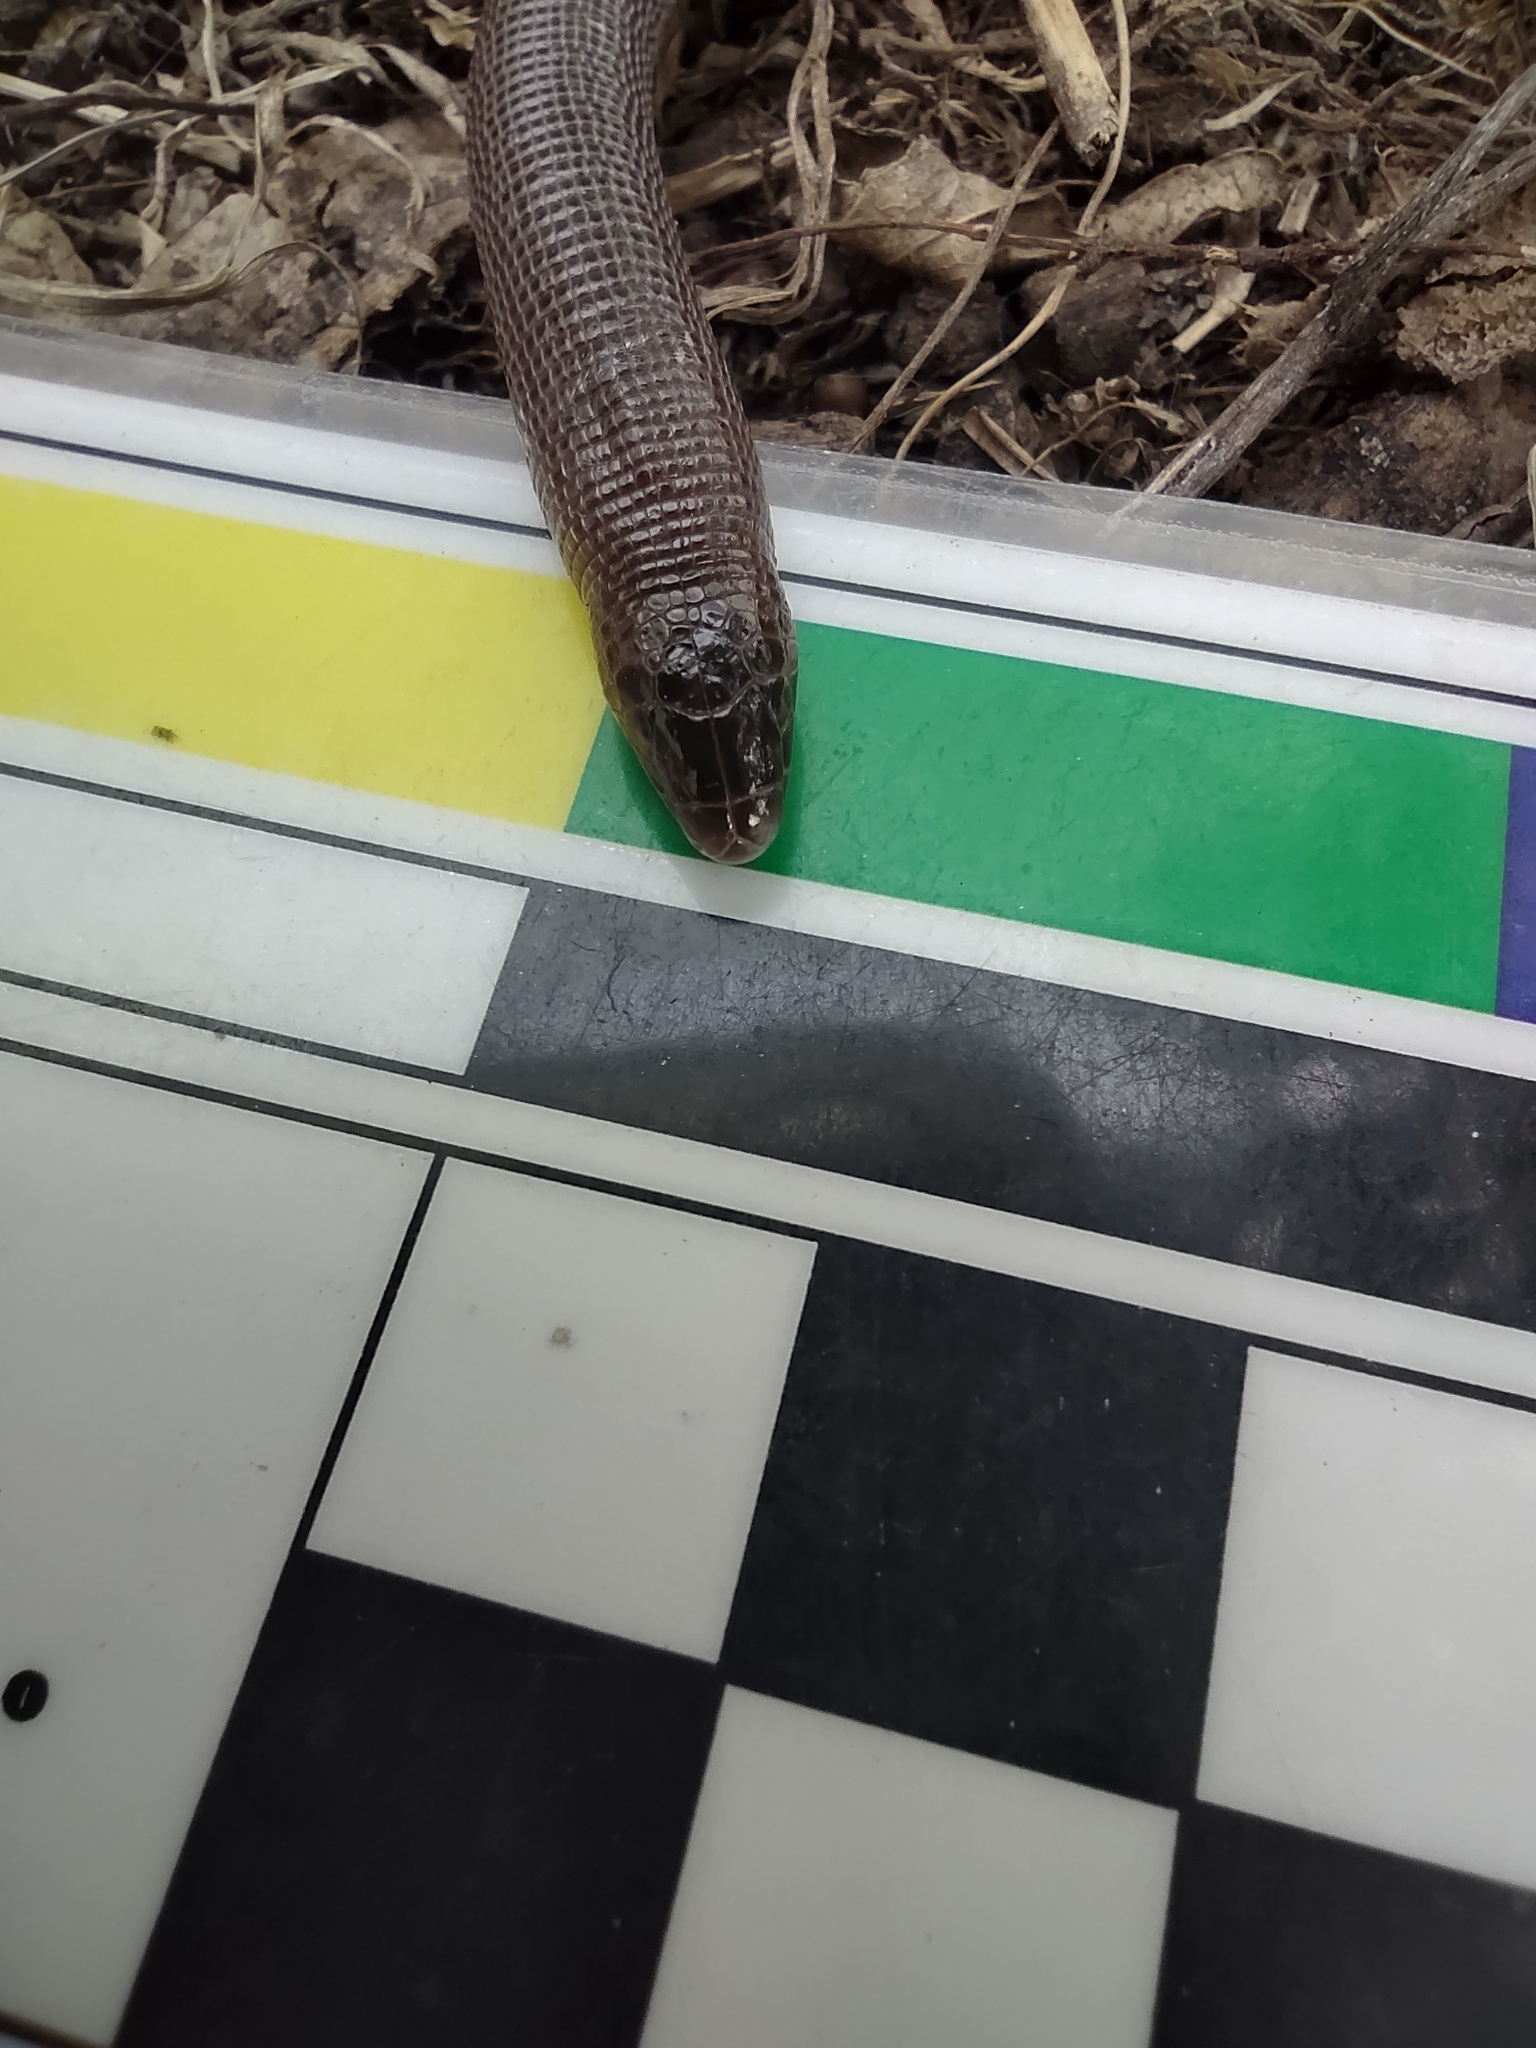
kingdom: Animalia
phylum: Chordata
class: Squamata
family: Amphisbaenidae
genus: Amphisbaena
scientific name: Amphisbaena darwinii
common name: Darwin's ringed worm lizard
